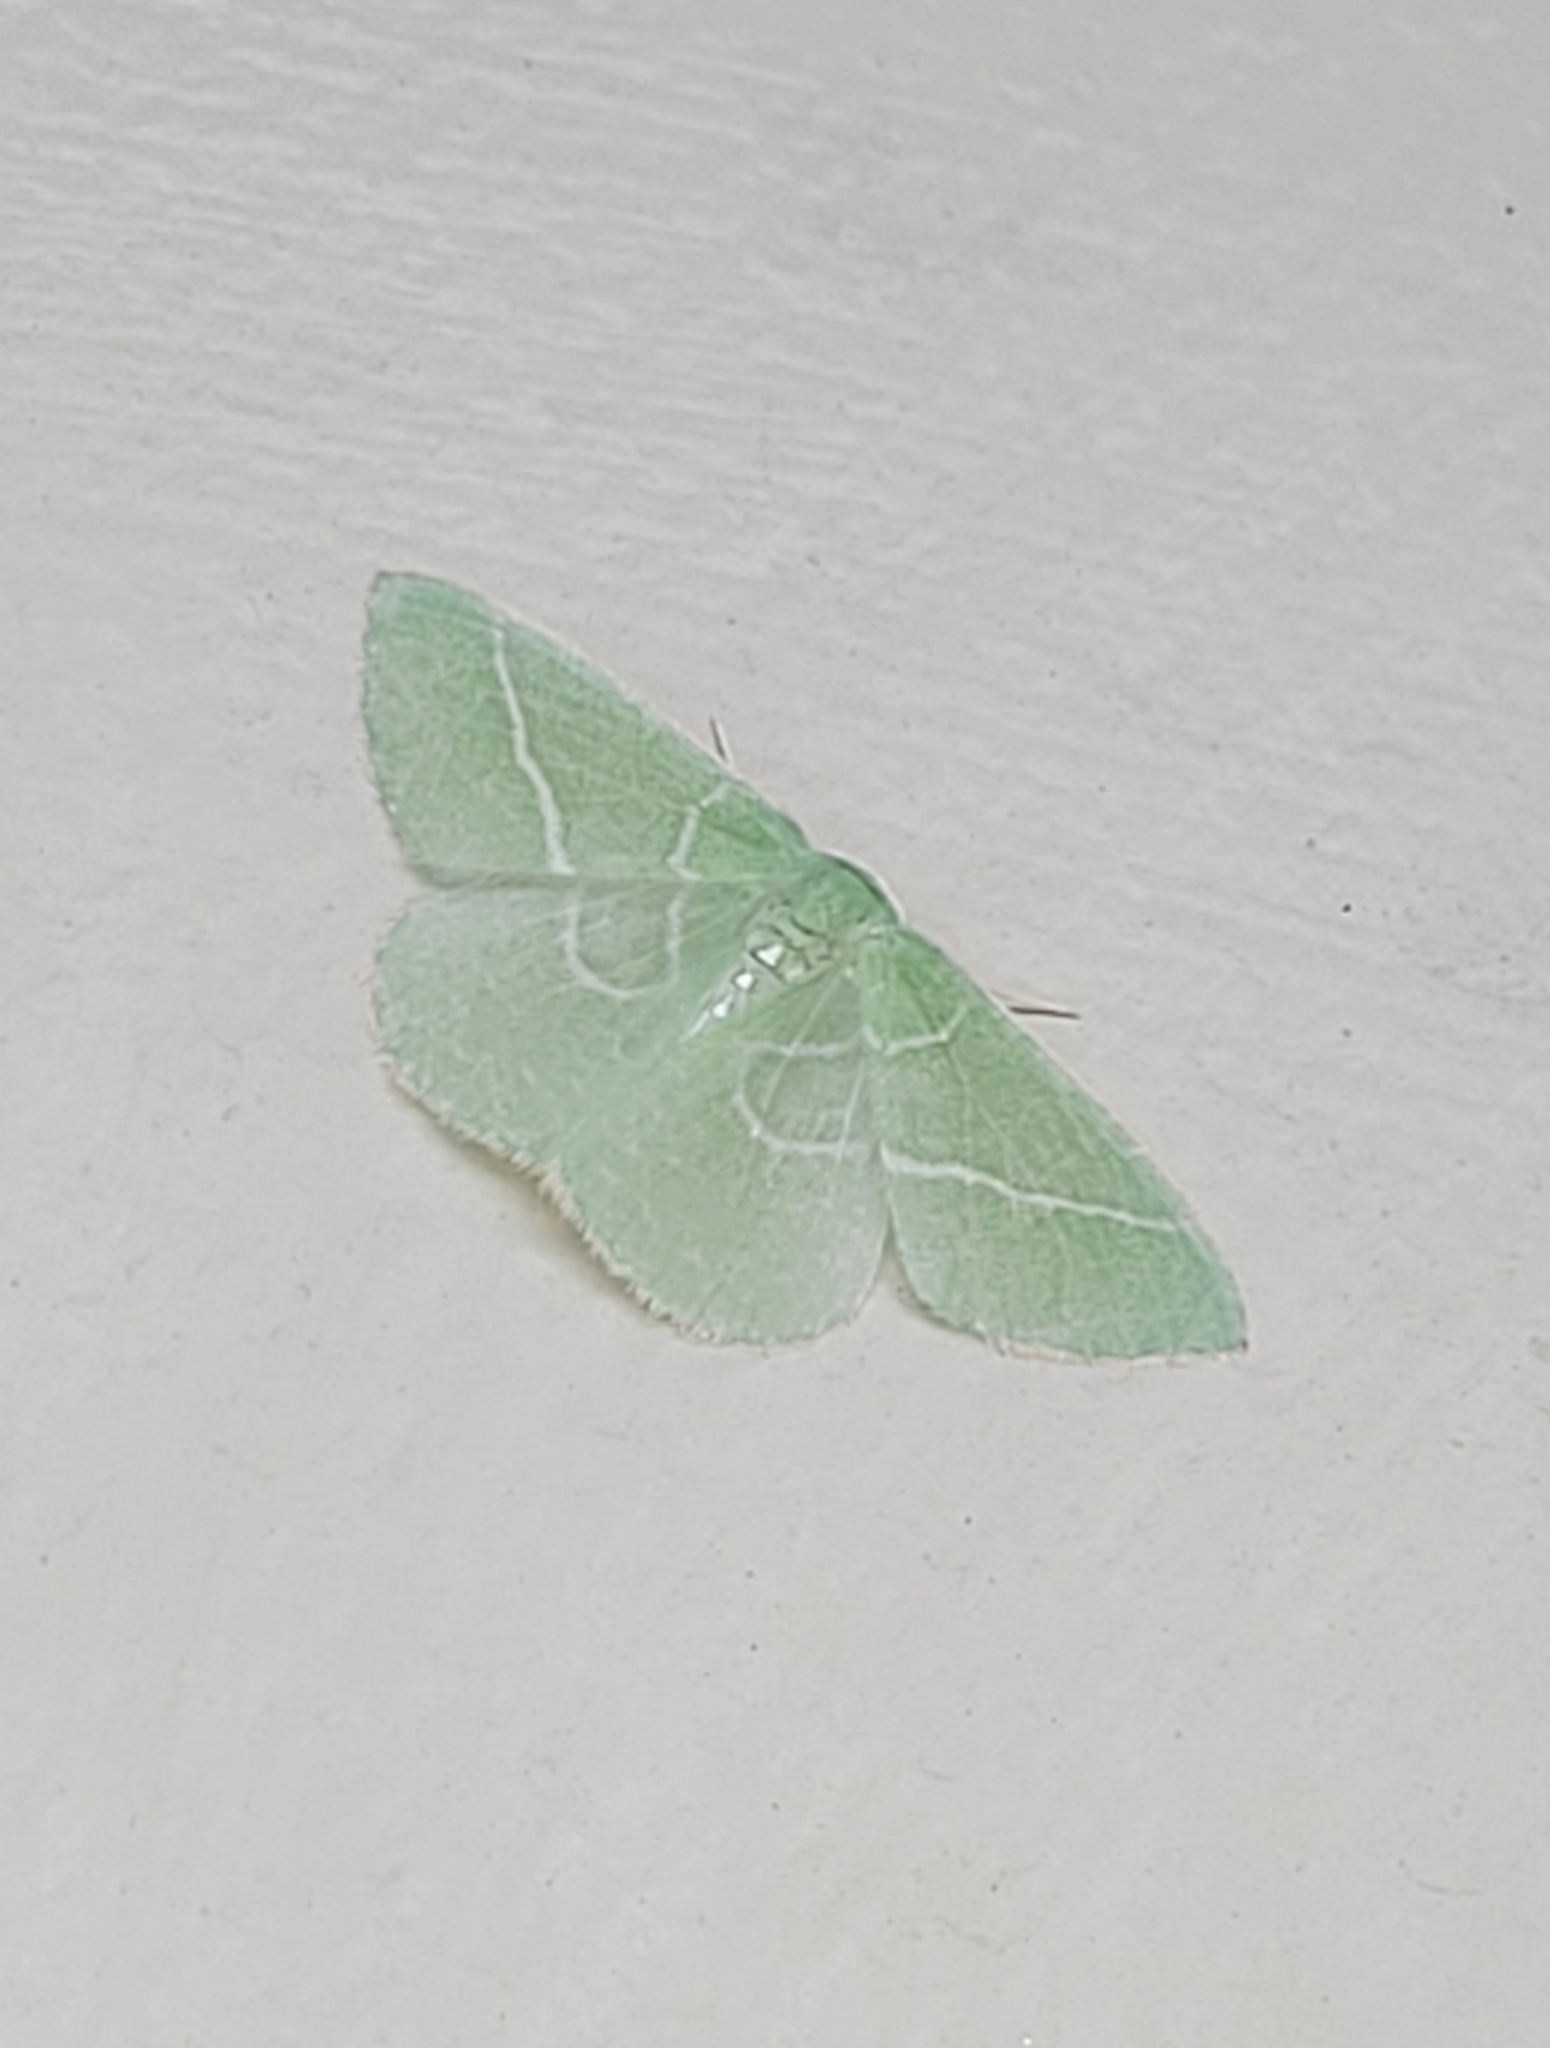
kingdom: Animalia
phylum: Arthropoda
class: Insecta
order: Lepidoptera
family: Geometridae
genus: Nemoria
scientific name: Nemoria unitaria
